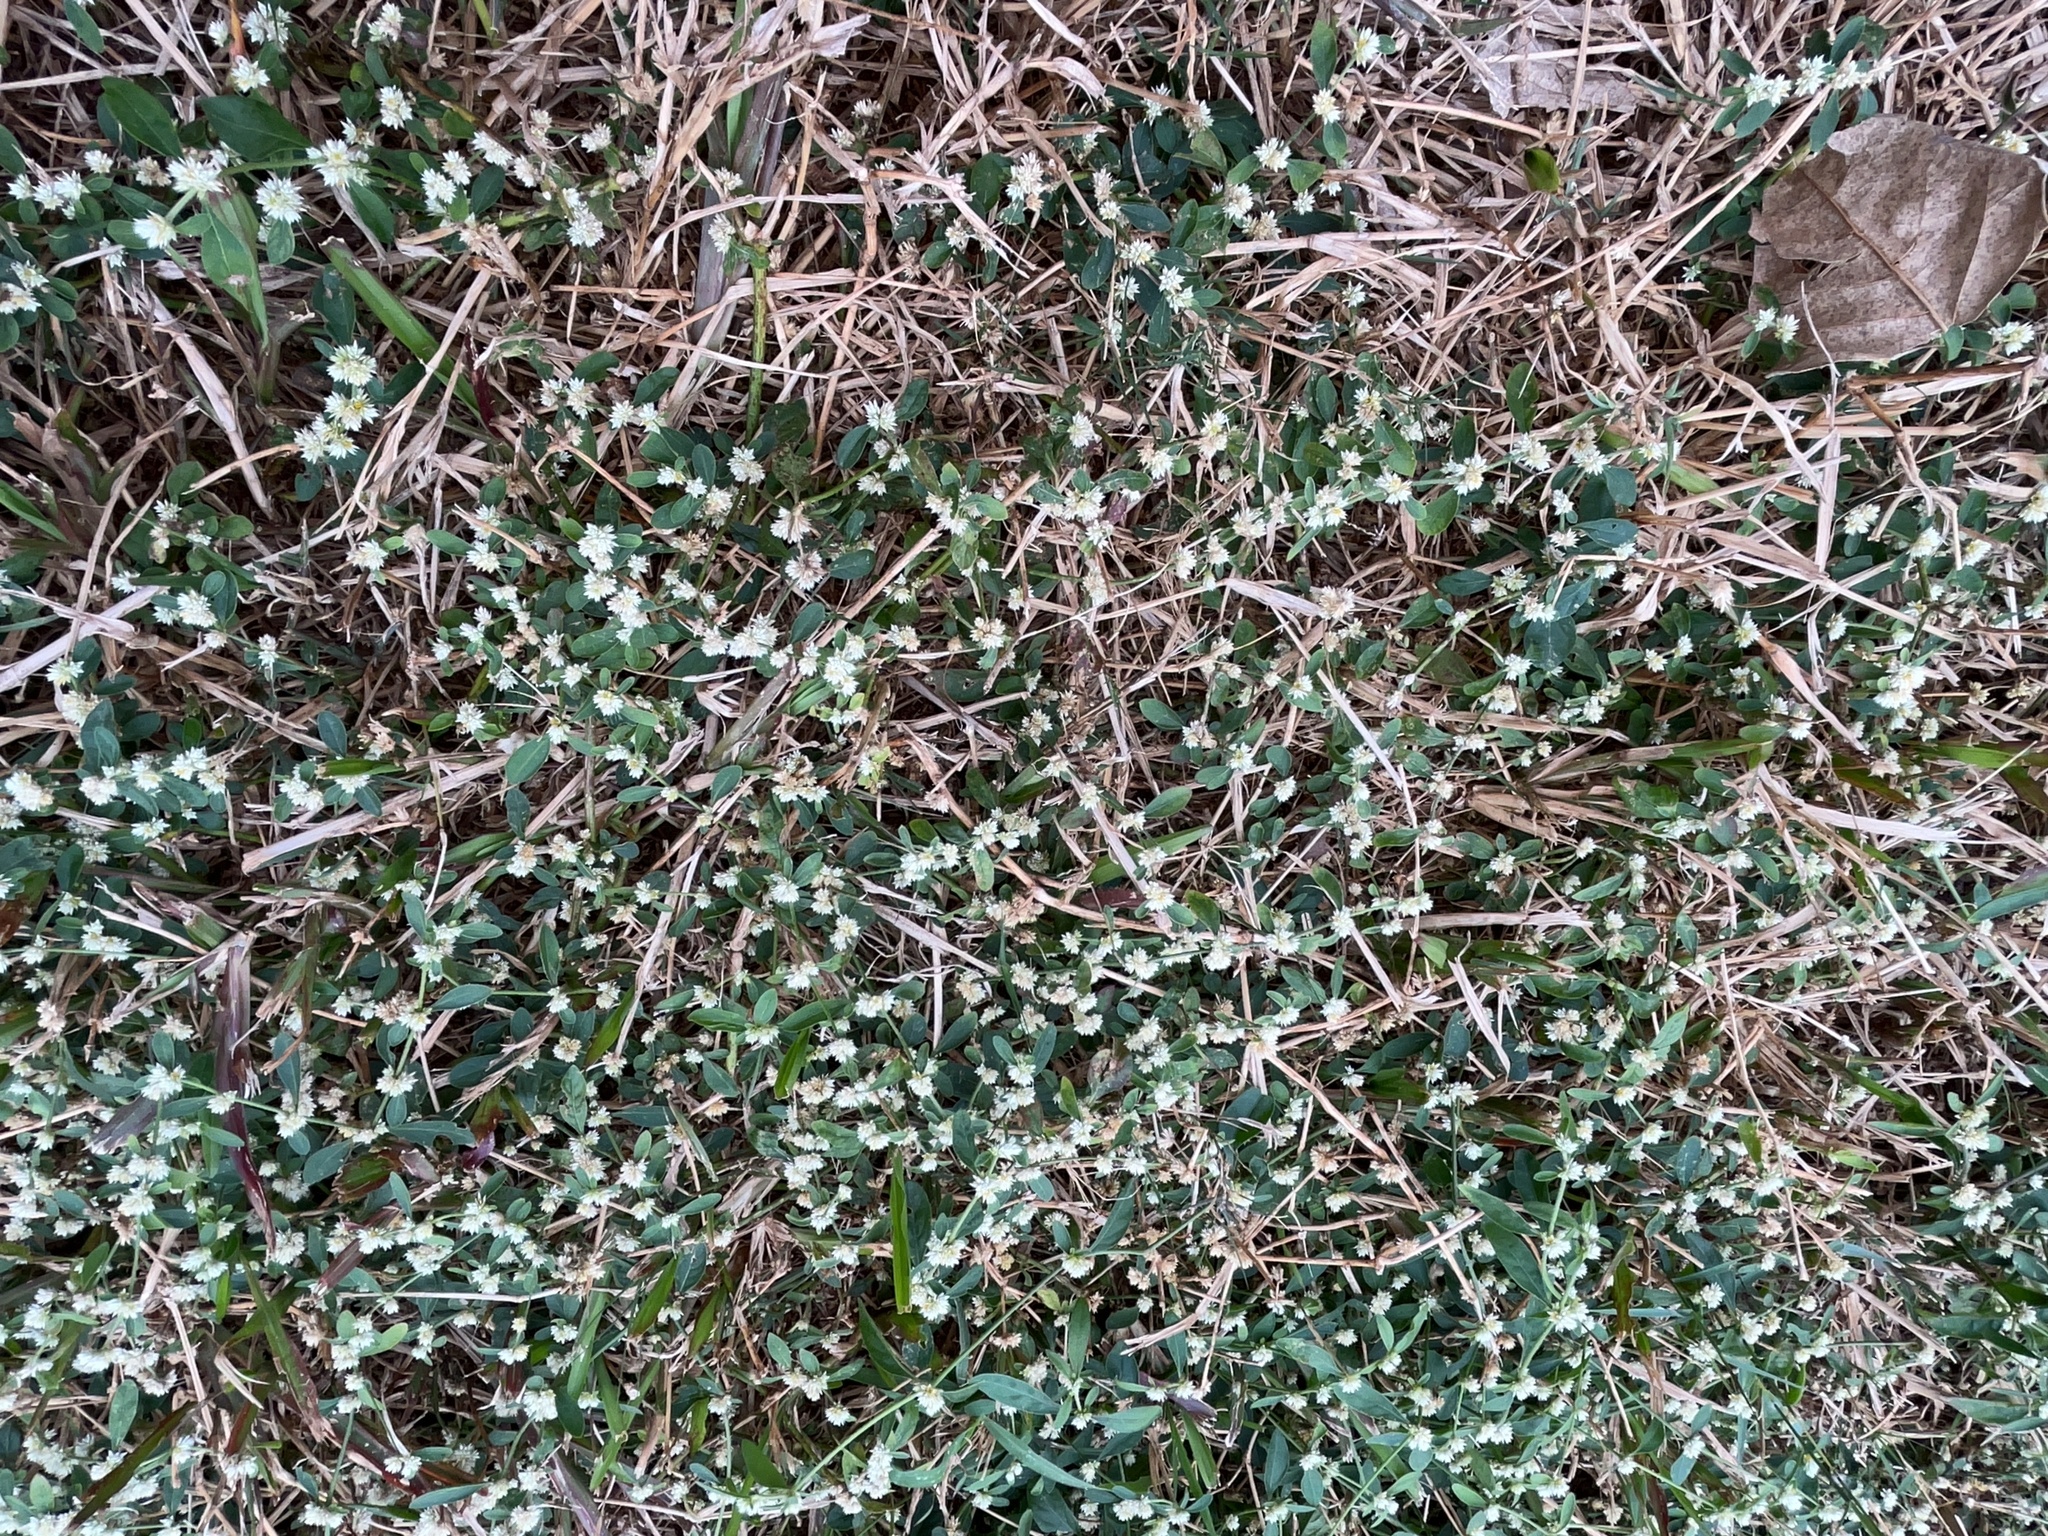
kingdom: Plantae
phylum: Tracheophyta
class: Magnoliopsida
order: Caryophyllales
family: Amaranthaceae
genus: Alternanthera
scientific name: Alternanthera ficoidea
